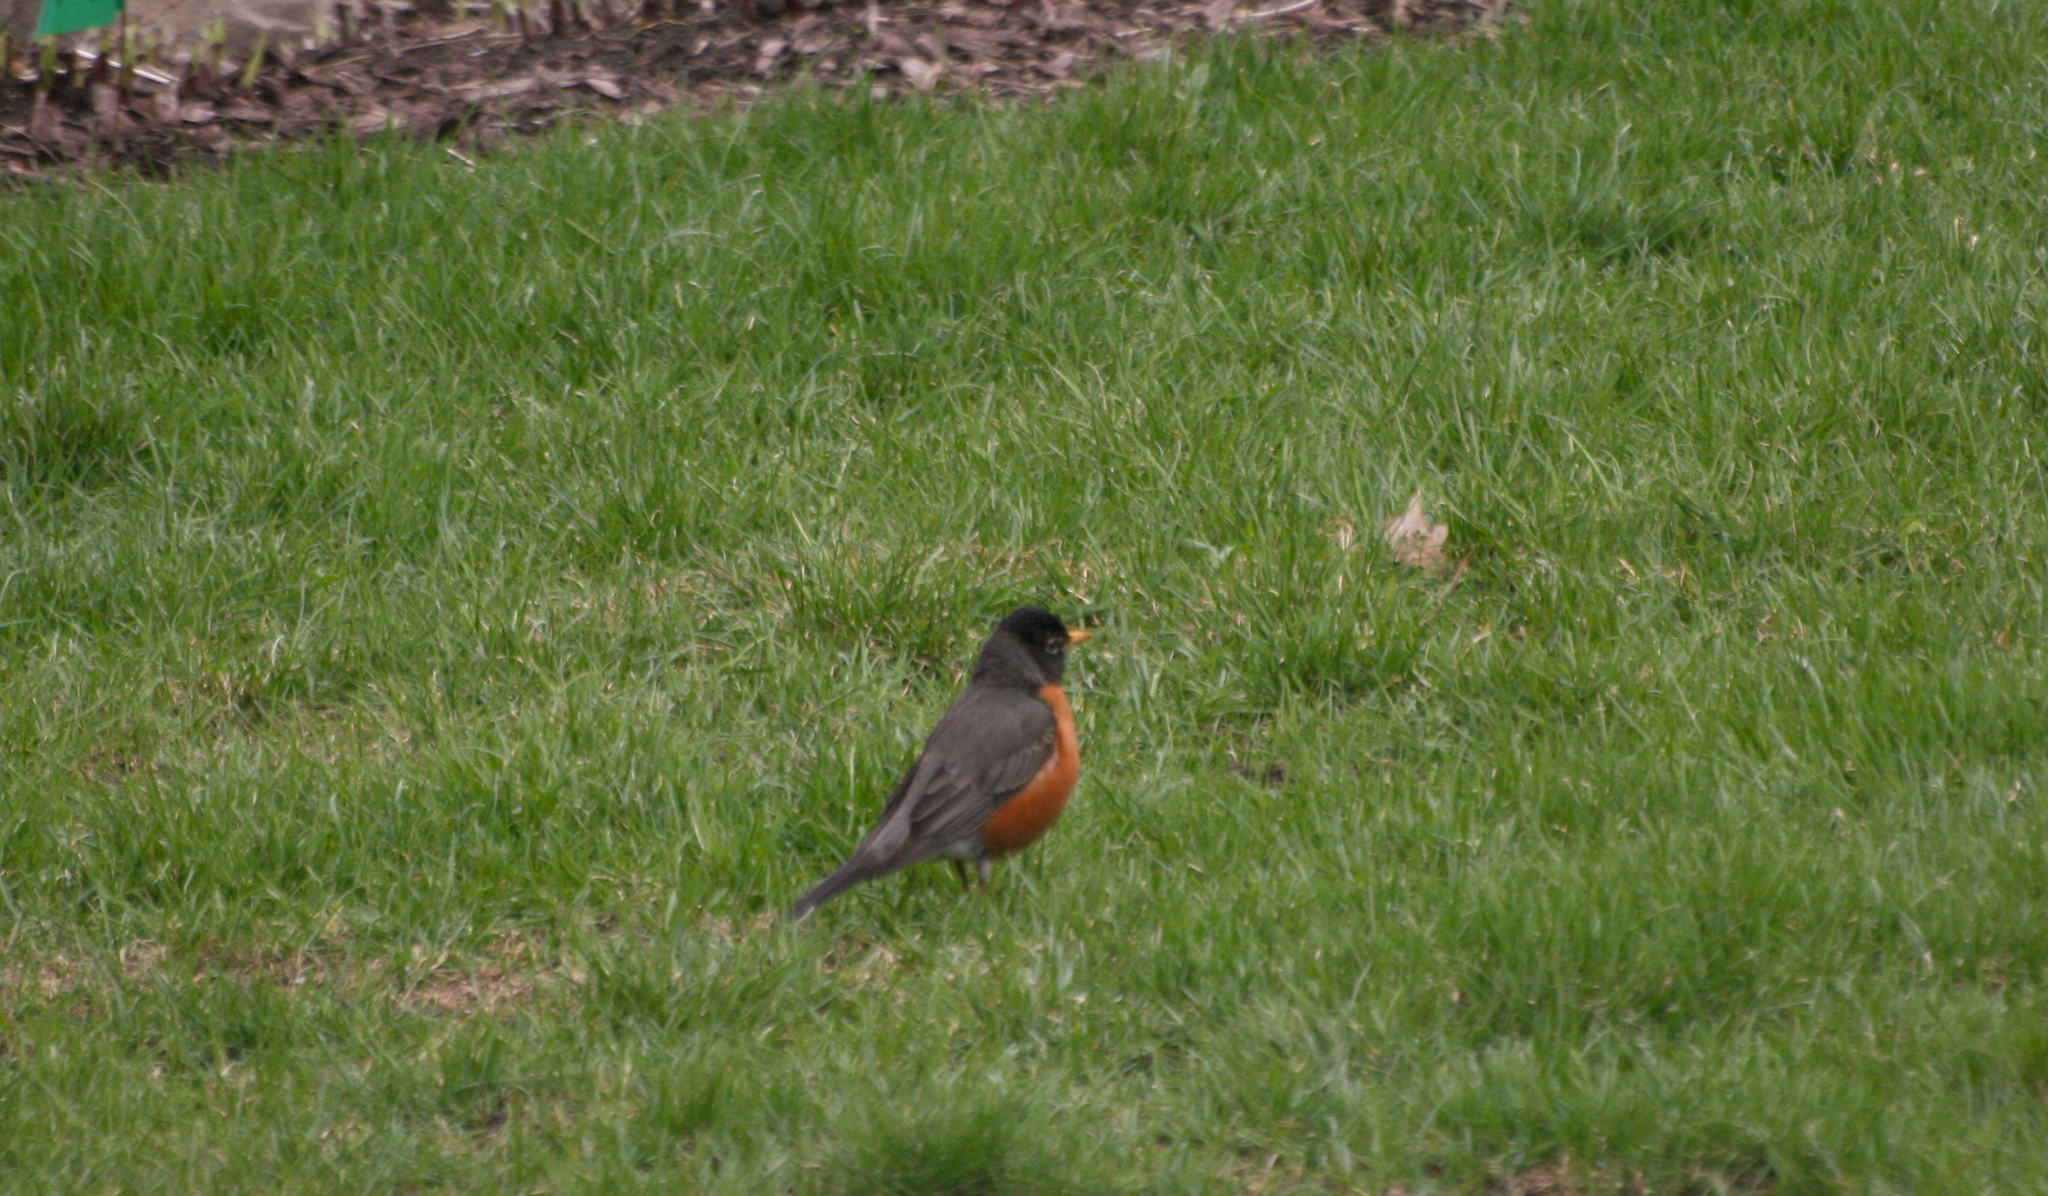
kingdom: Animalia
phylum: Chordata
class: Aves
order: Passeriformes
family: Turdidae
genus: Turdus
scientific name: Turdus migratorius
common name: American robin
